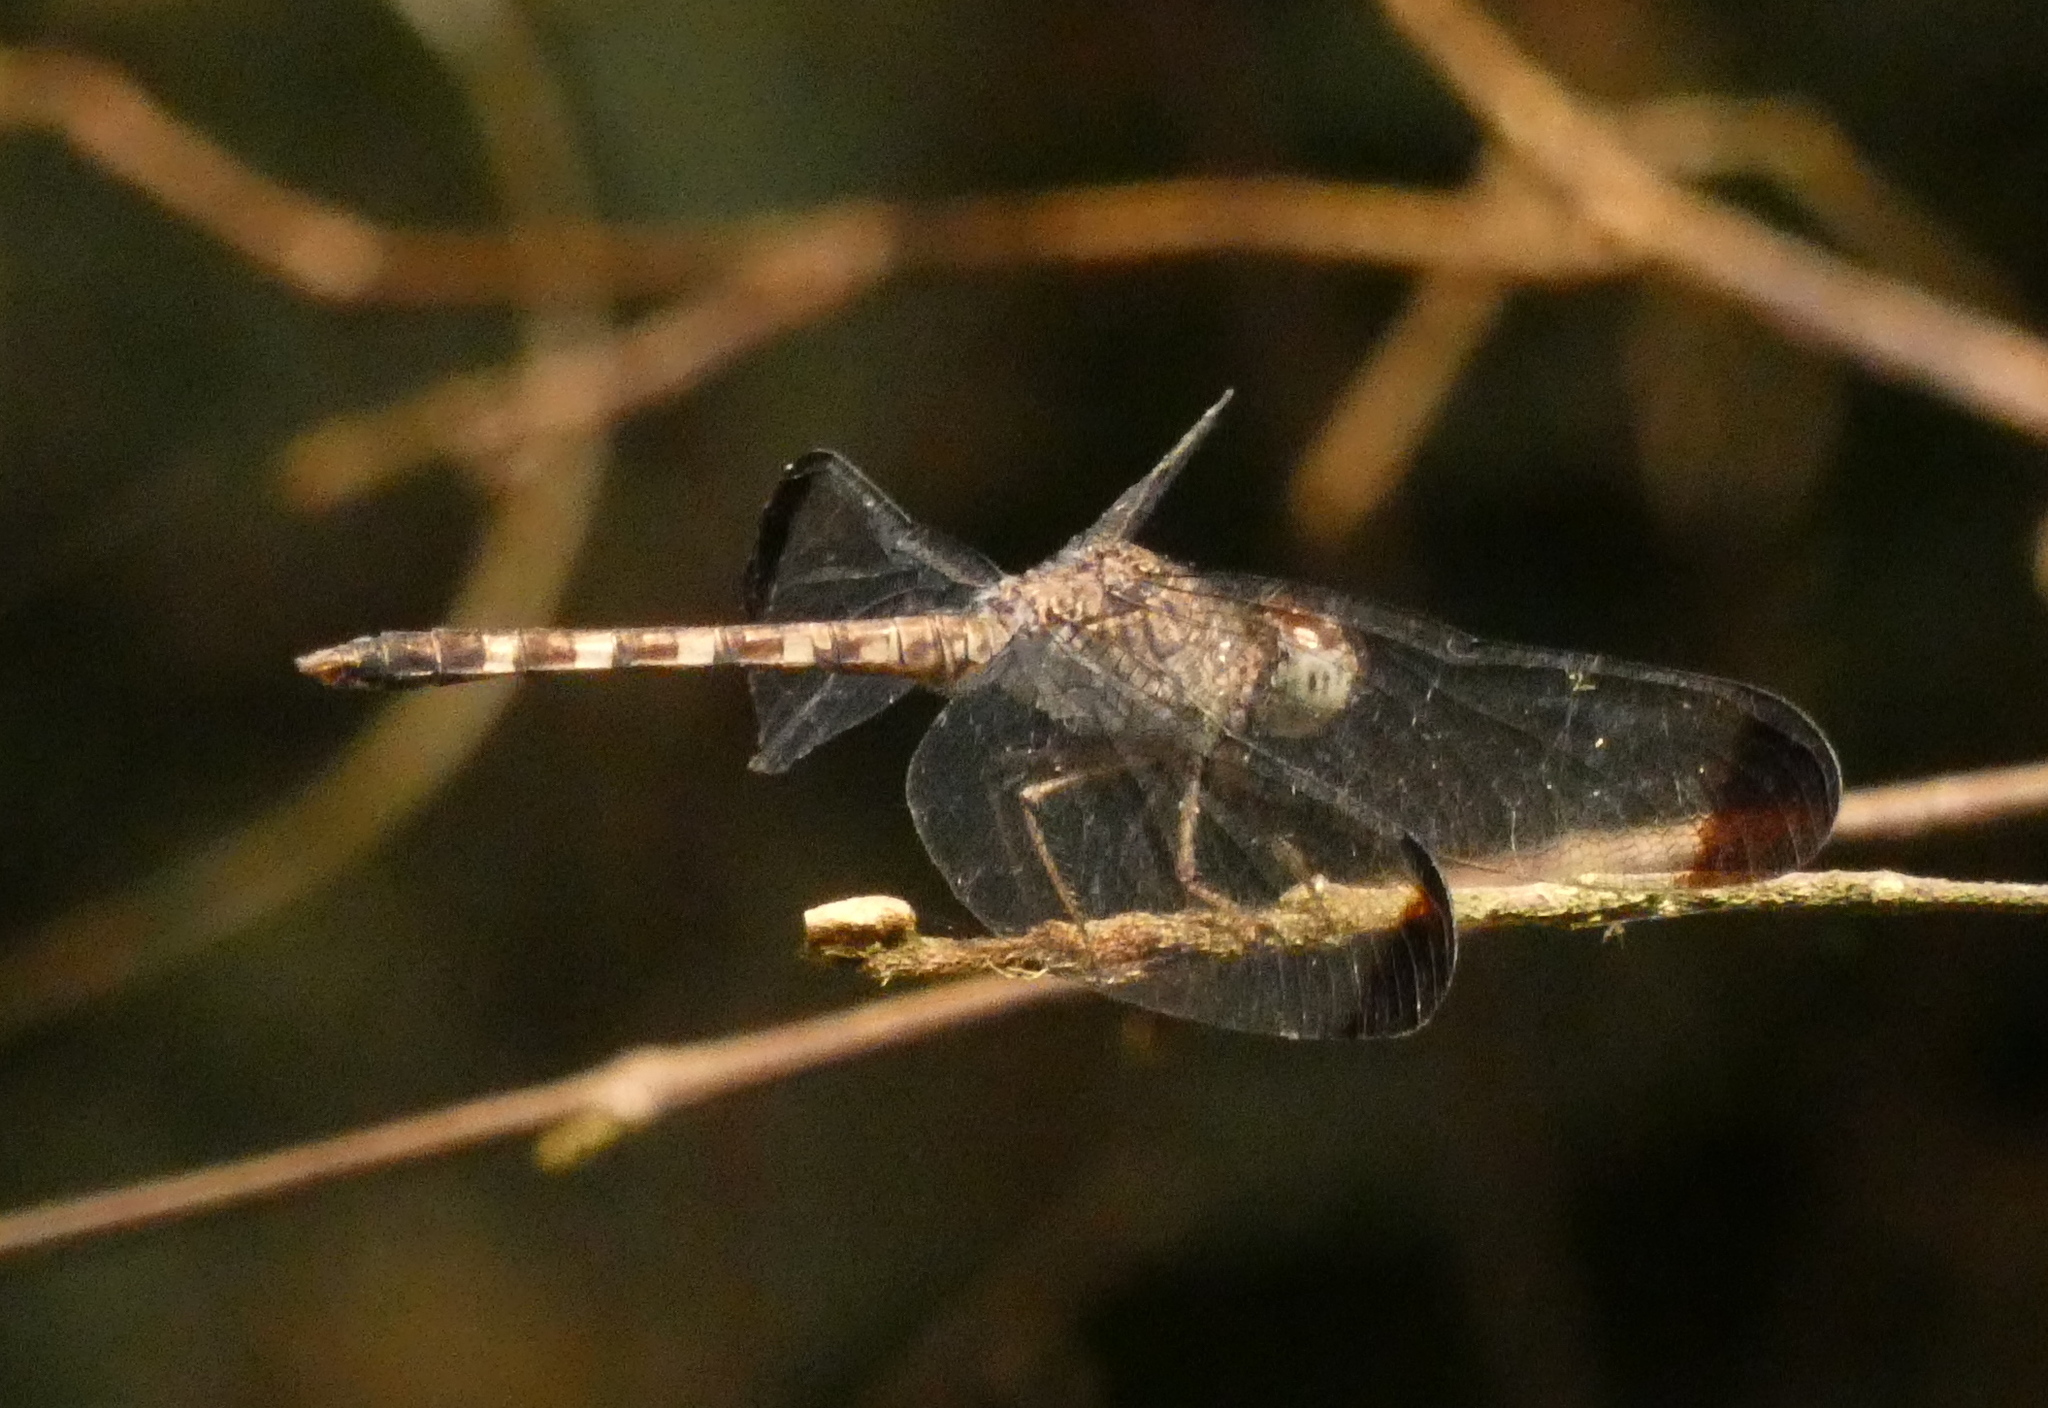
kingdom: Animalia
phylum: Arthropoda
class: Insecta
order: Odonata
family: Libellulidae
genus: Uracis
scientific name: Uracis imbuta
